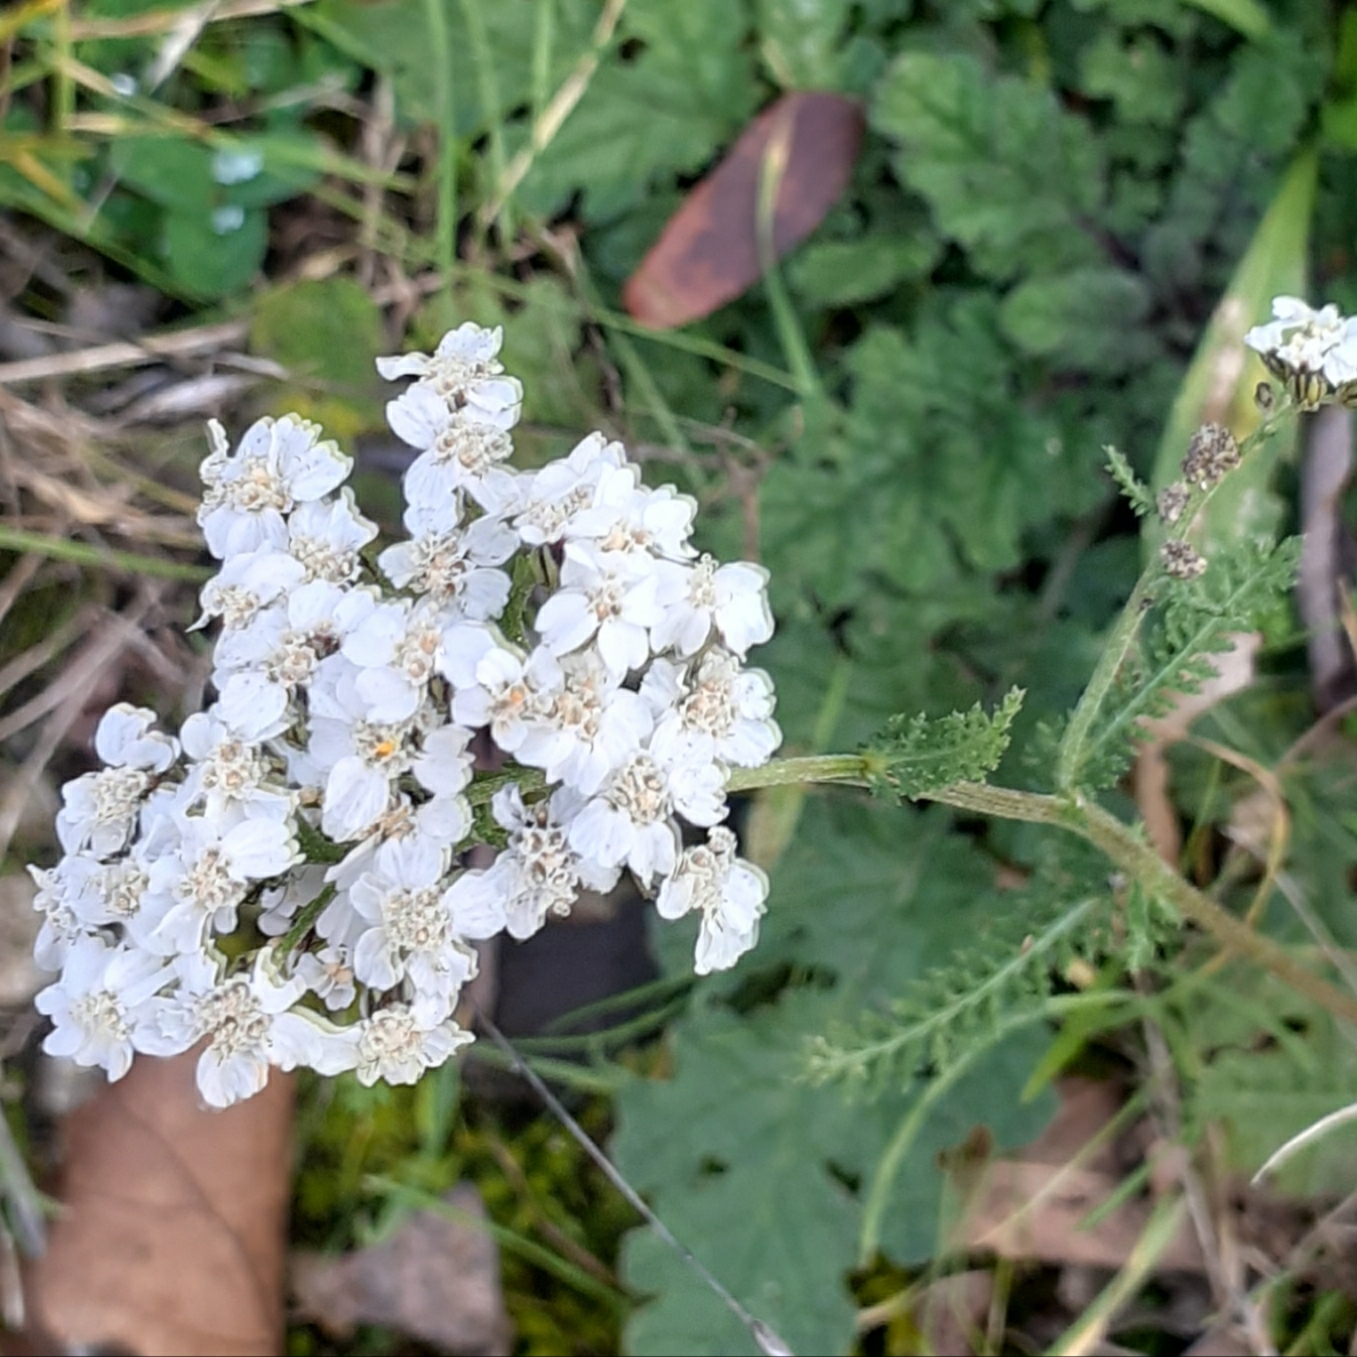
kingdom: Plantae
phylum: Tracheophyta
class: Magnoliopsida
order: Asterales
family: Asteraceae
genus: Achillea
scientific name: Achillea millefolium
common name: Yarrow
